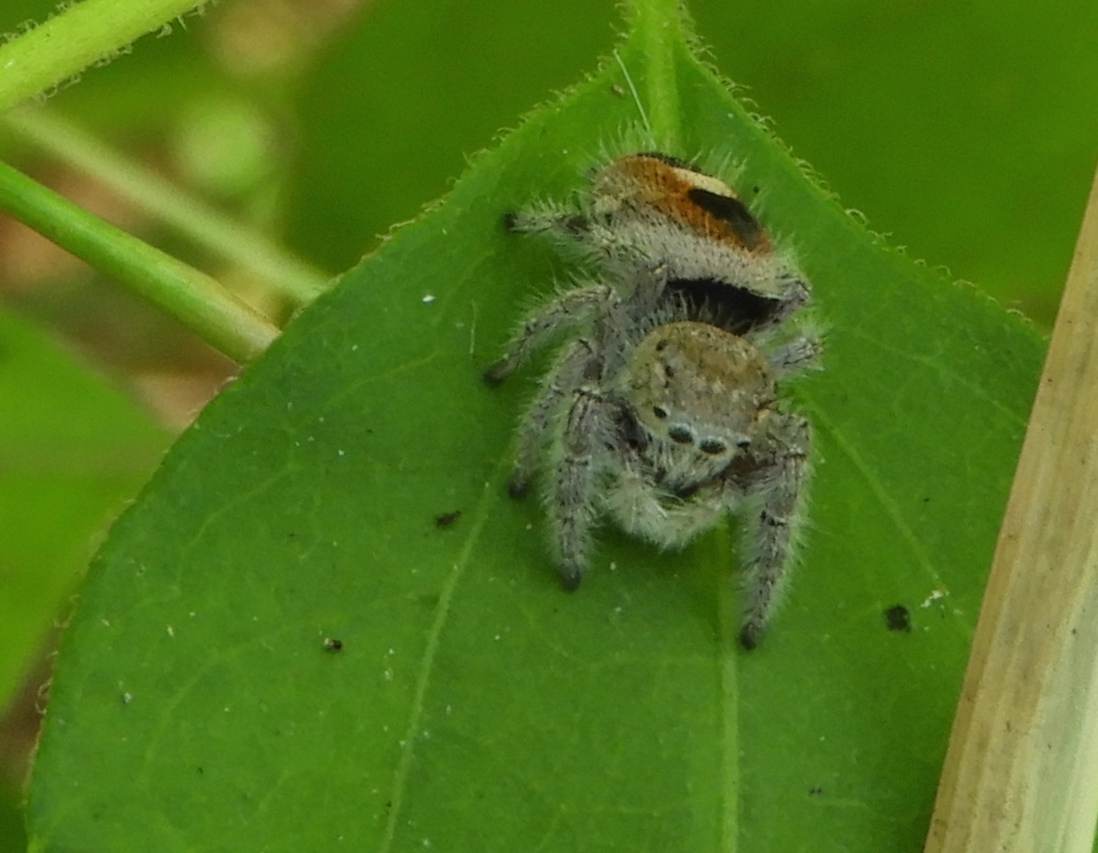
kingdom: Animalia
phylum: Arthropoda
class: Arachnida
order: Araneae
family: Salticidae
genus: Phidippus
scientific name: Phidippus pacosauritus
